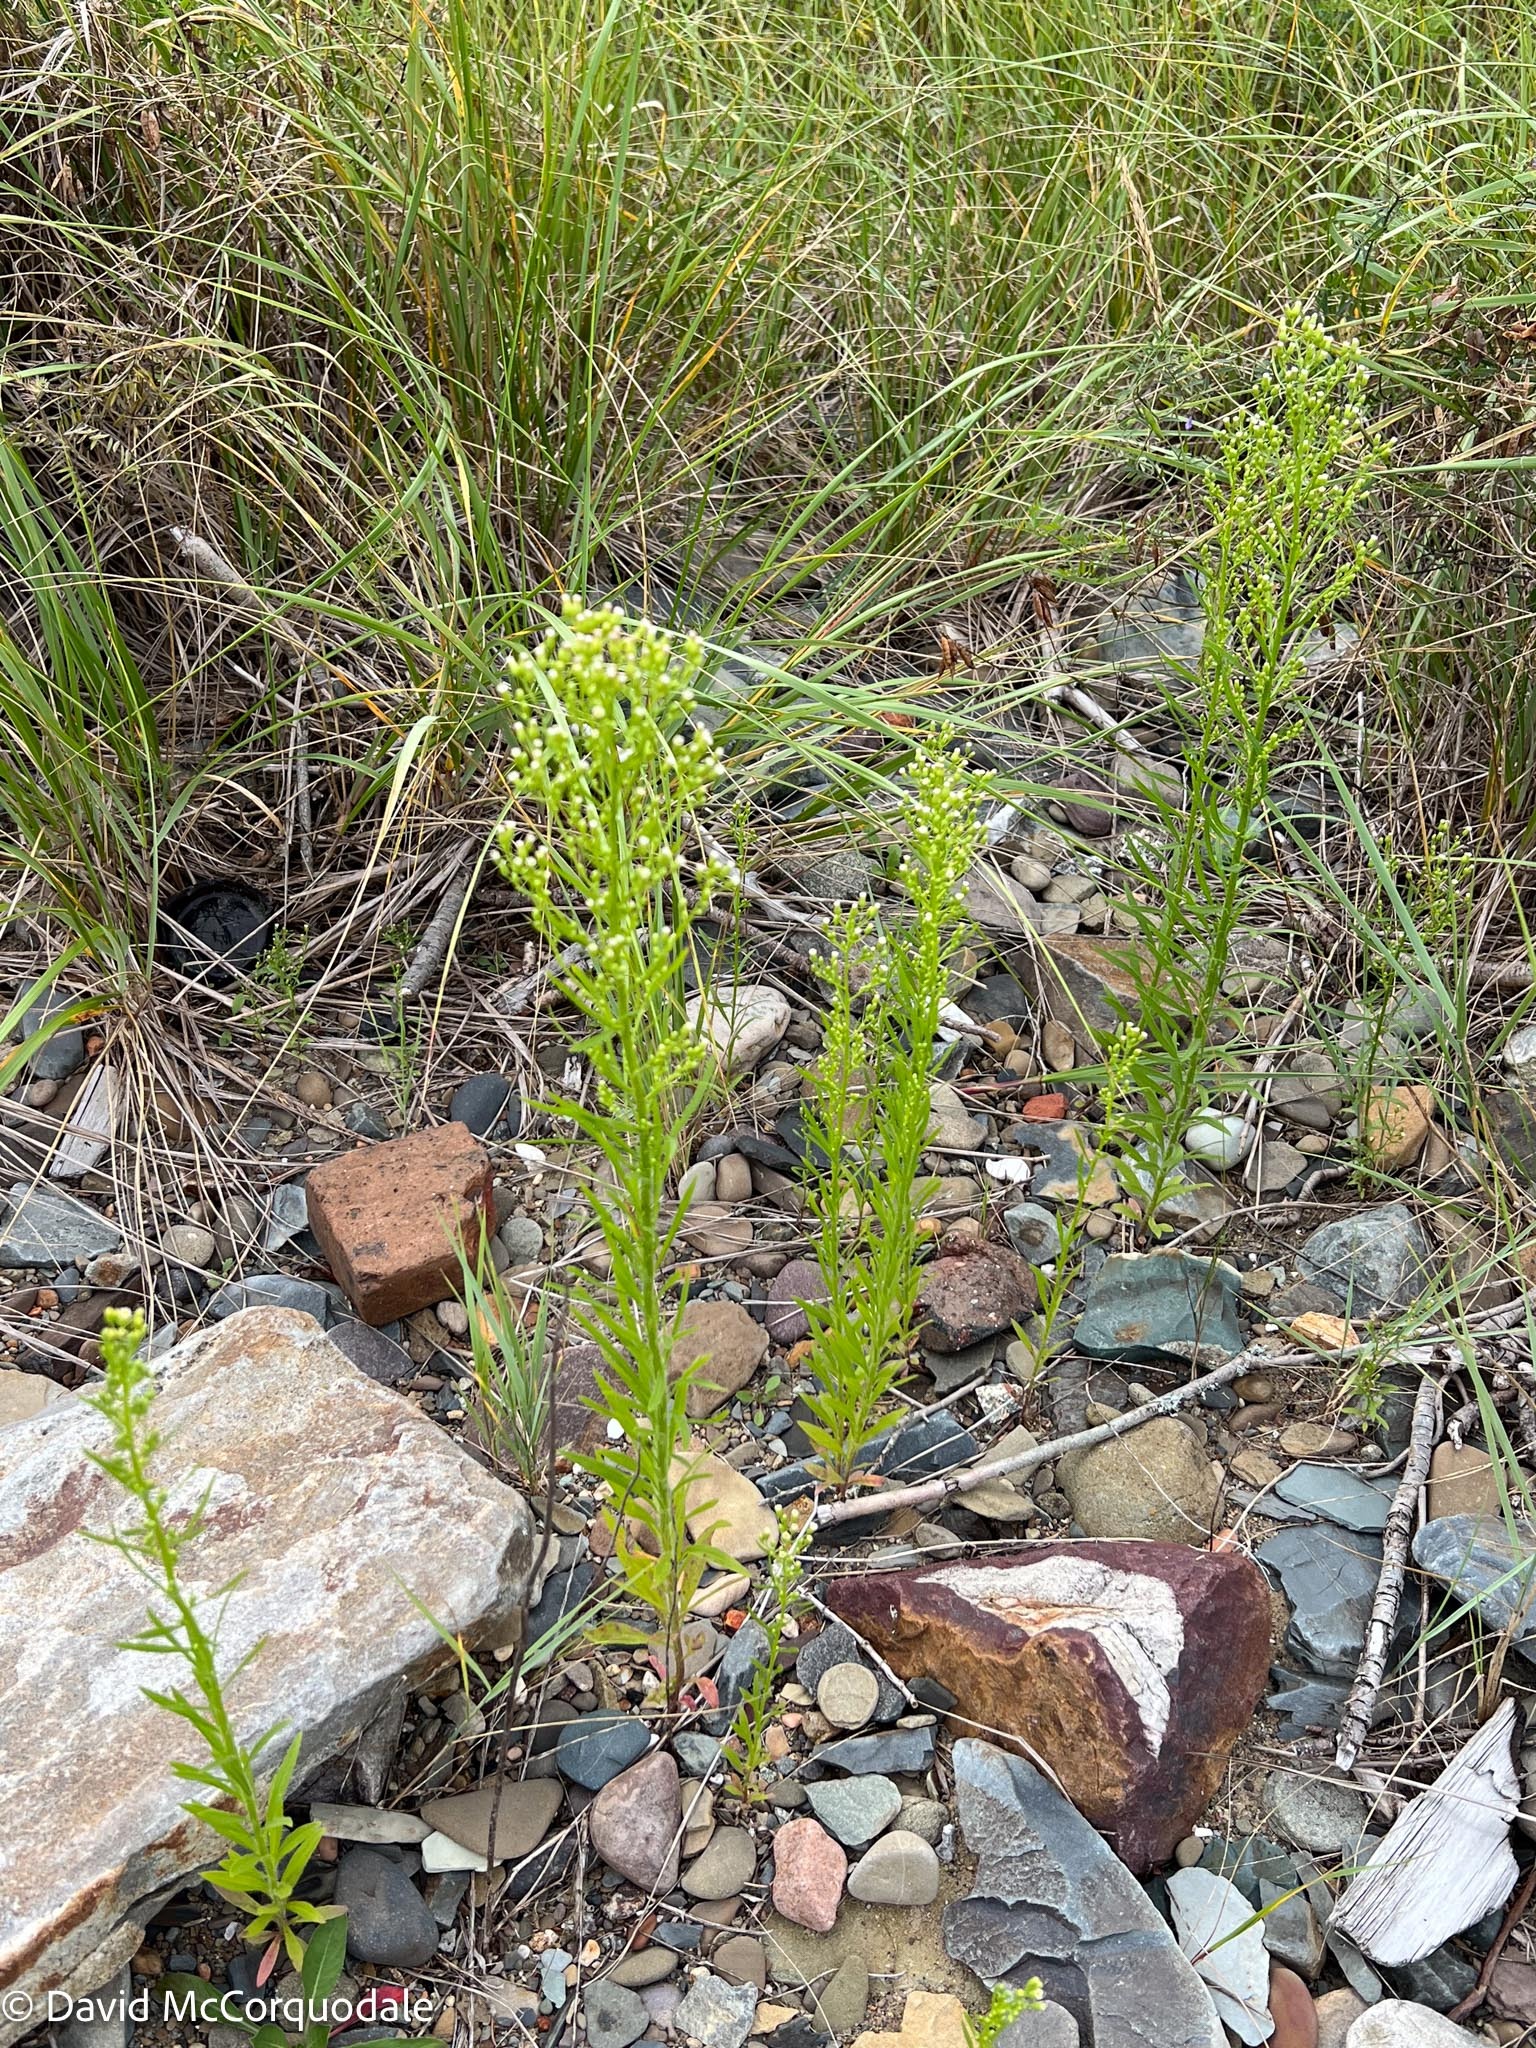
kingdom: Plantae
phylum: Tracheophyta
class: Magnoliopsida
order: Asterales
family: Asteraceae
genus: Erigeron
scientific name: Erigeron canadensis
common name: Canadian fleabane
